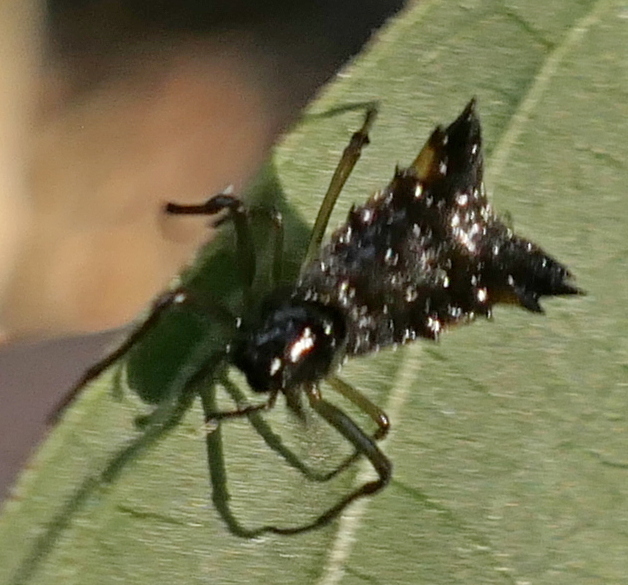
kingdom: Animalia
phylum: Arthropoda
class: Arachnida
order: Araneae
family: Araneidae
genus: Micrathena
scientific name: Micrathena triangularis
